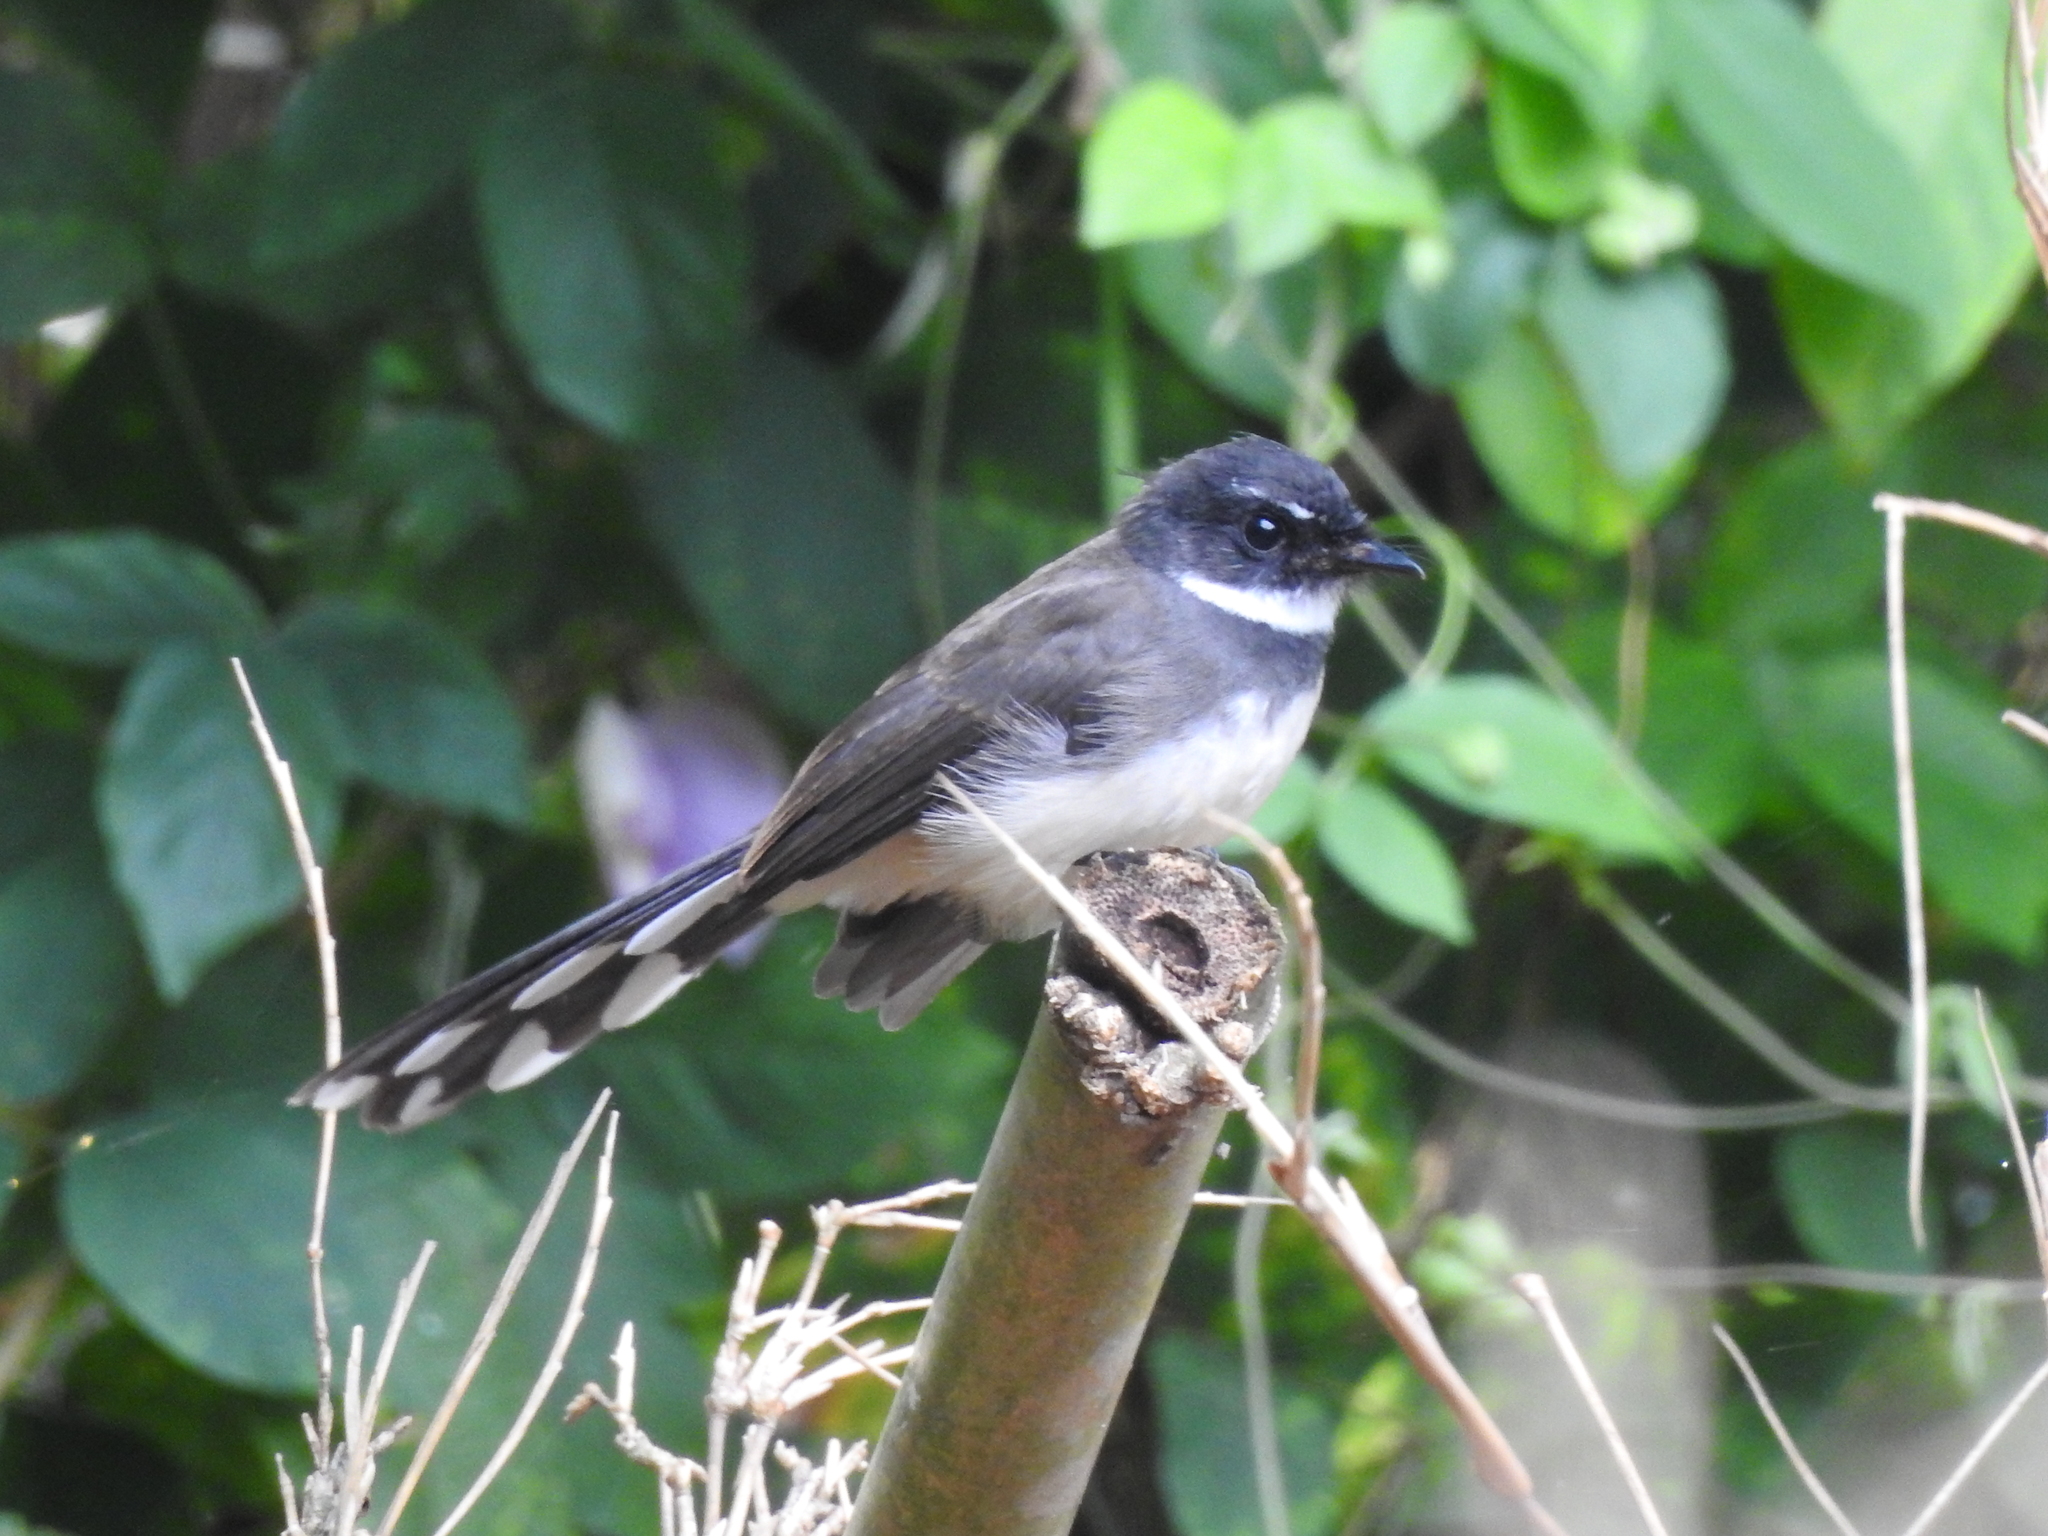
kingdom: Animalia
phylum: Chordata
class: Aves
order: Passeriformes
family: Rhipiduridae
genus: Rhipidura
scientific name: Rhipidura javanica
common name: Pied fantail
